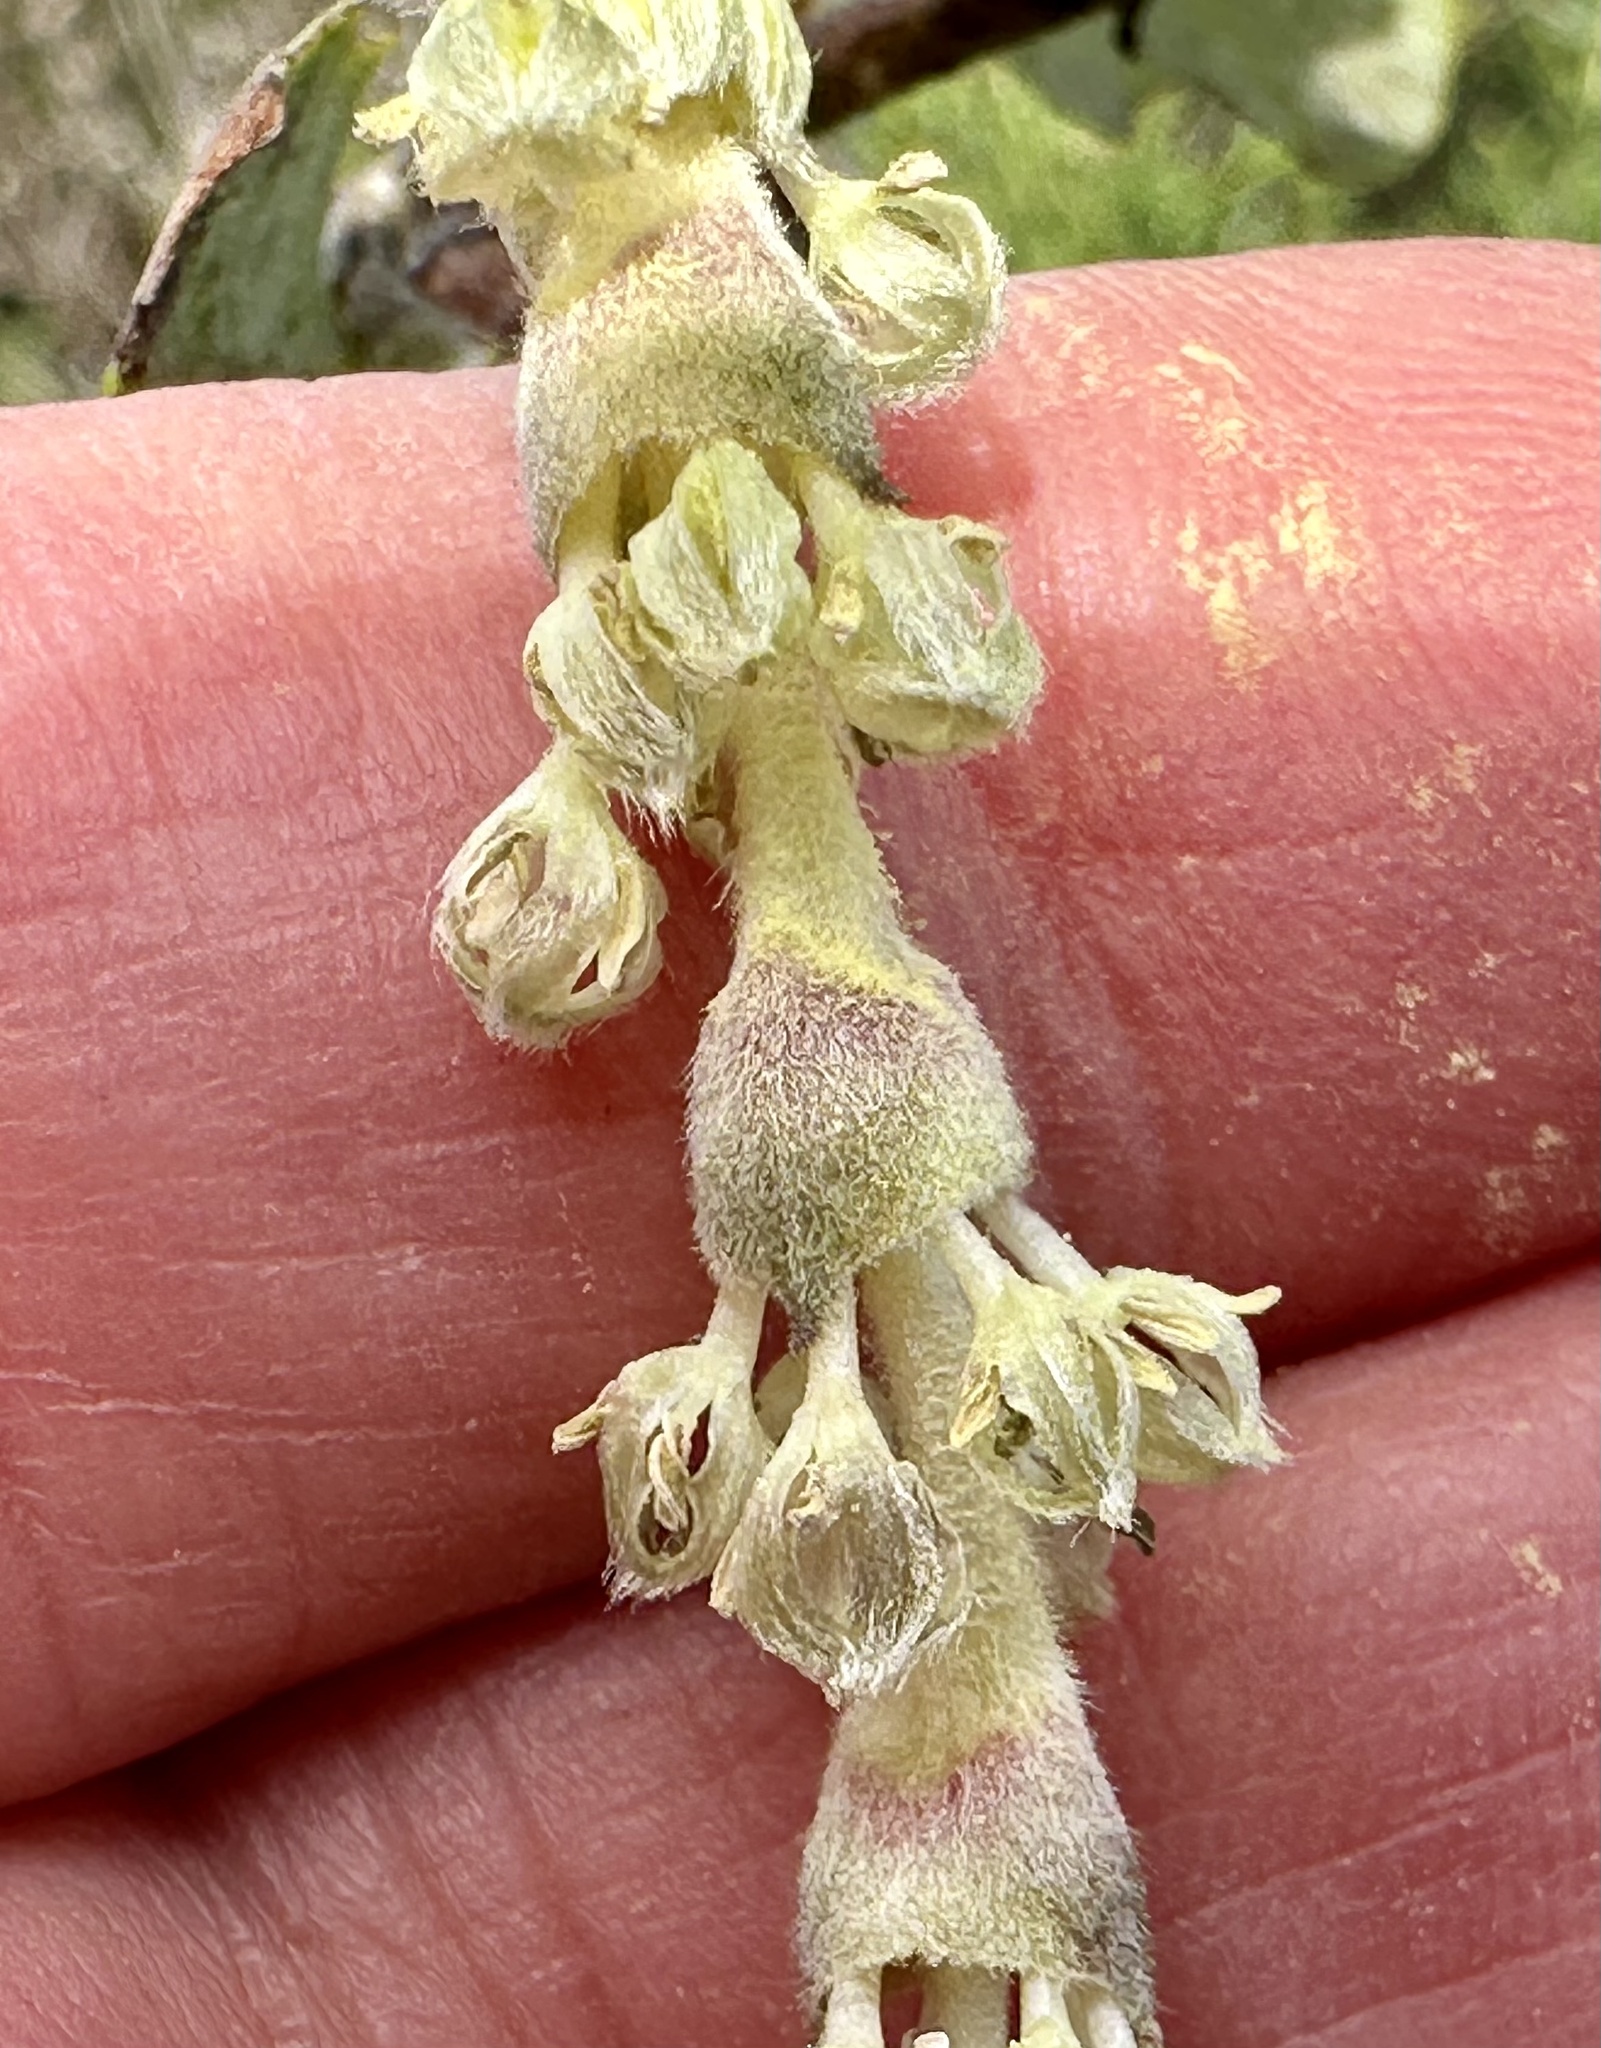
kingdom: Plantae
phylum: Tracheophyta
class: Magnoliopsida
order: Garryales
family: Garryaceae
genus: Garrya
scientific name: Garrya elliptica
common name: Silk-tassel
